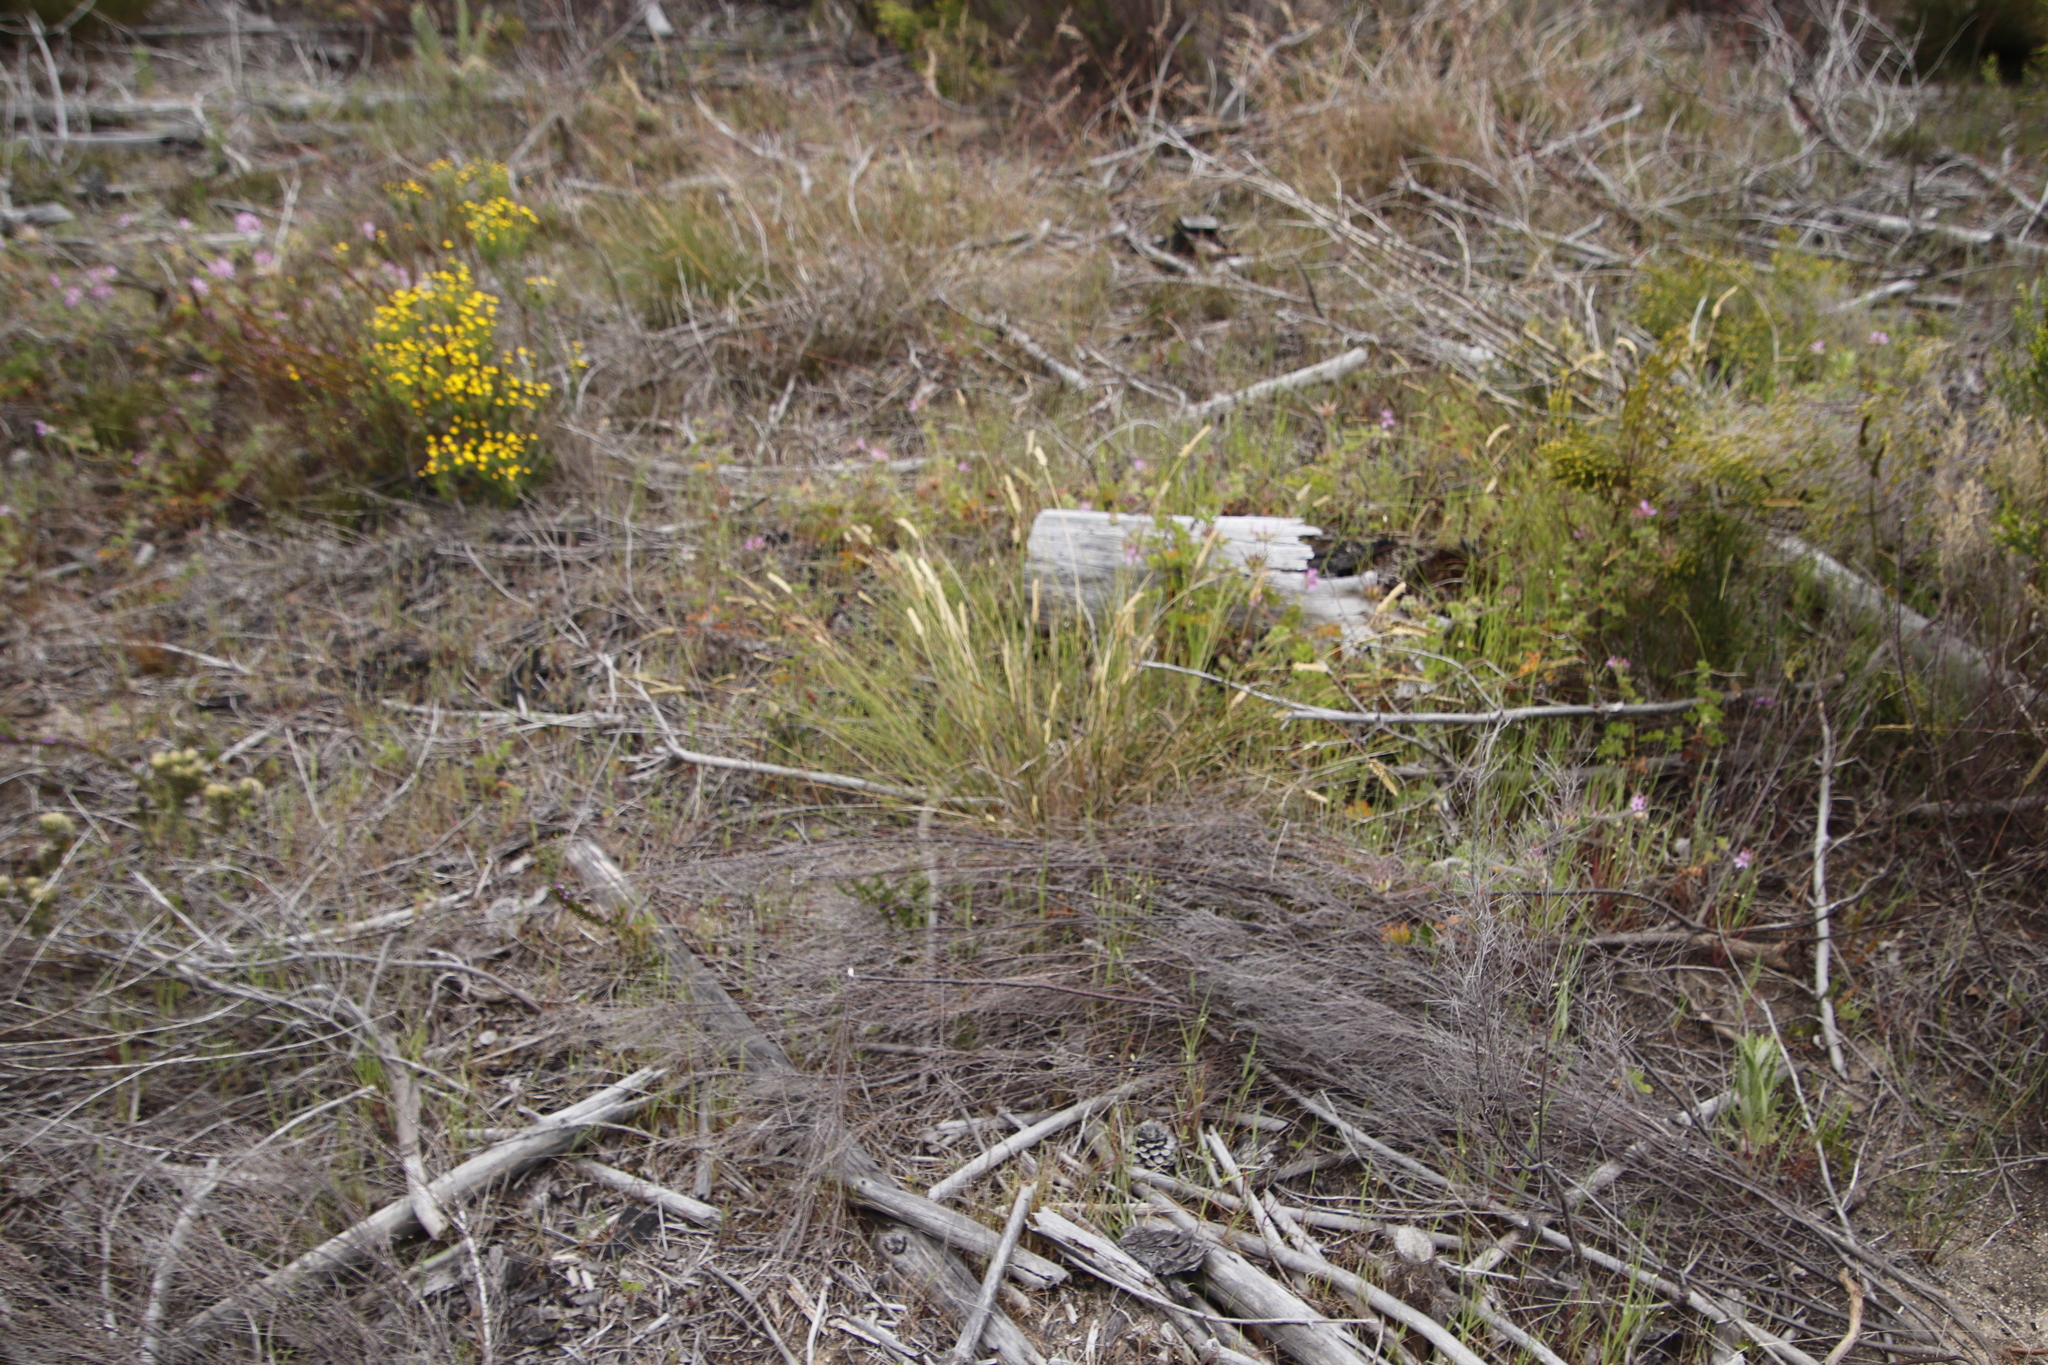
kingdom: Plantae
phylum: Tracheophyta
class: Liliopsida
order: Poales
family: Poaceae
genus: Tribolium
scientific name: Tribolium uniolae
